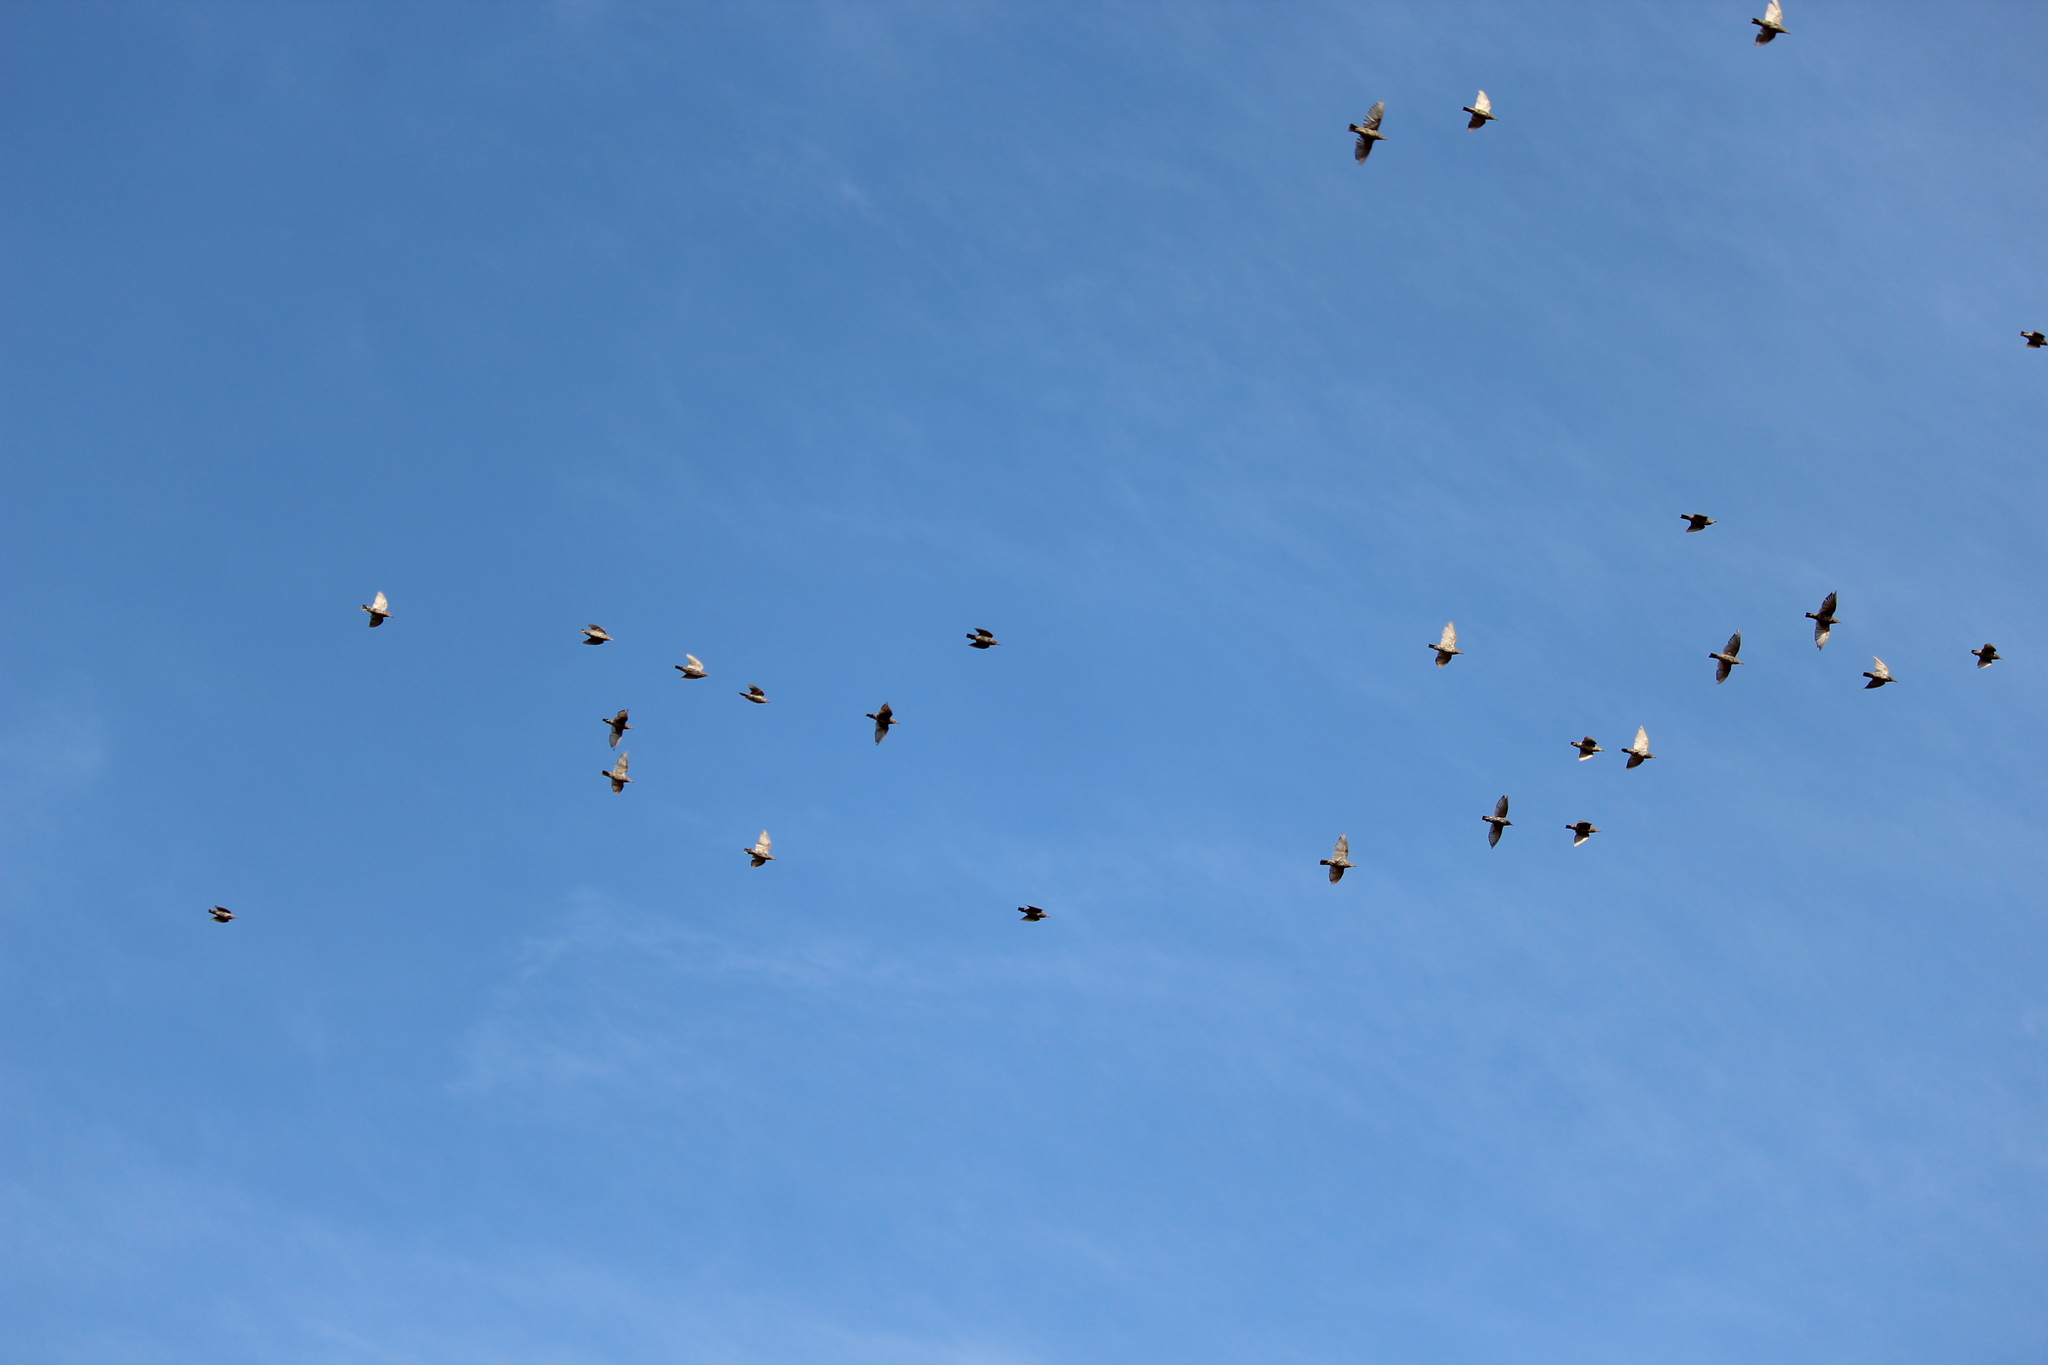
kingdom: Animalia
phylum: Chordata
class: Aves
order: Passeriformes
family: Sturnidae
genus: Sturnus
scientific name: Sturnus vulgaris
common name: Common starling
